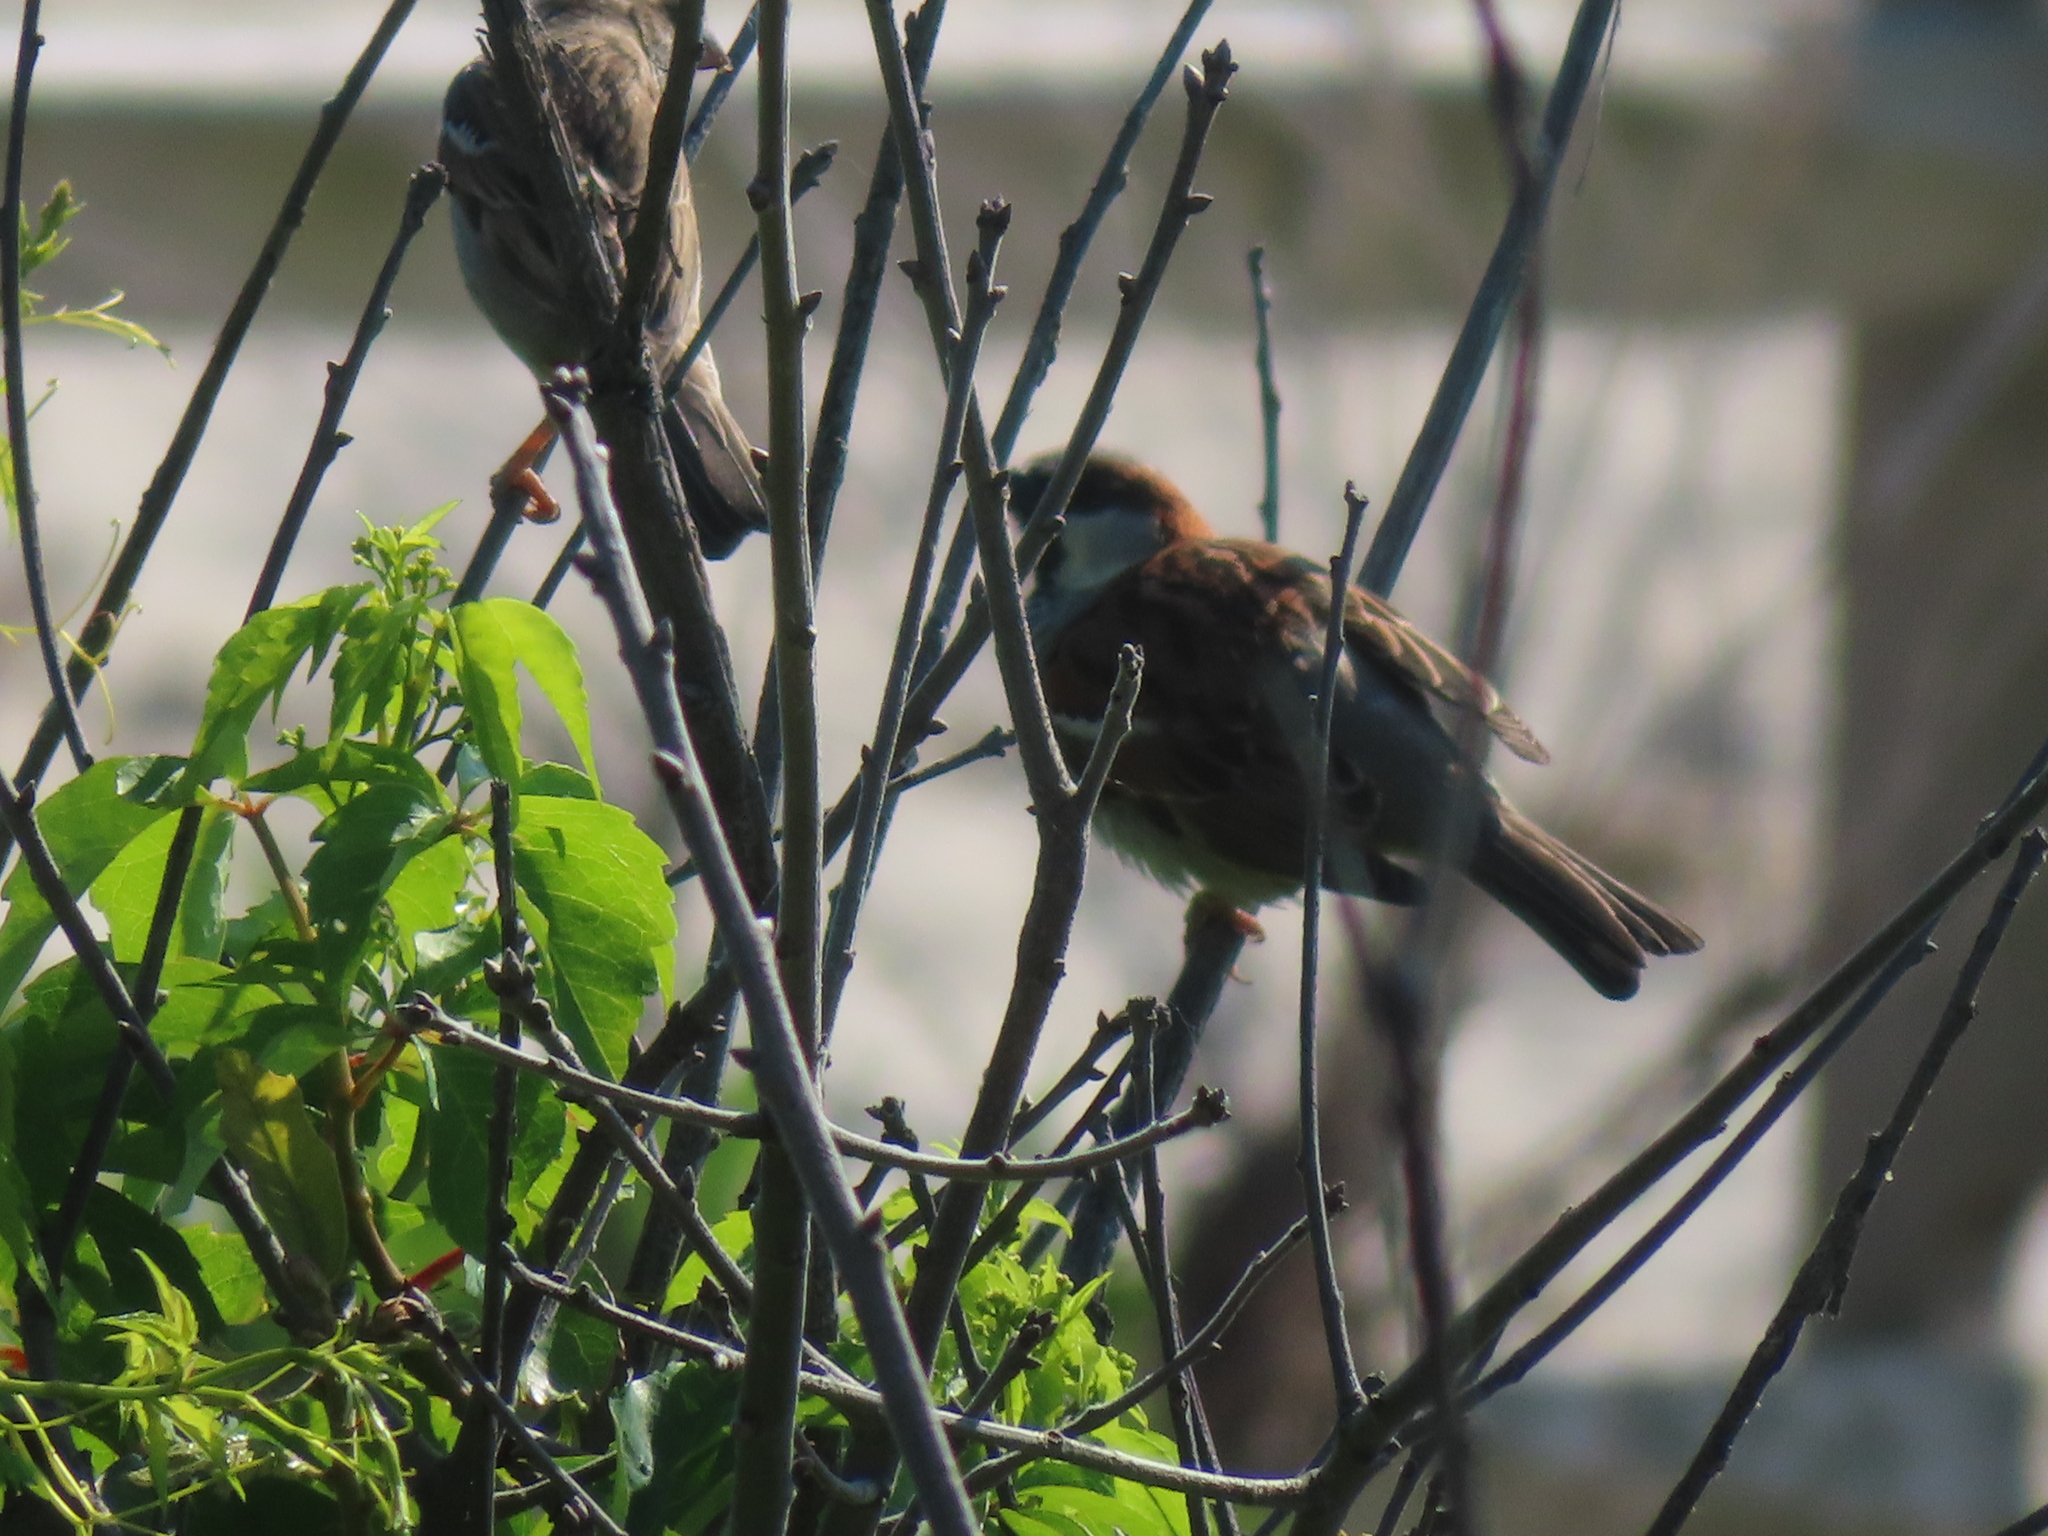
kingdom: Animalia
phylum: Chordata
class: Aves
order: Passeriformes
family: Passeridae
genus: Passer
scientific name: Passer domesticus
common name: House sparrow
